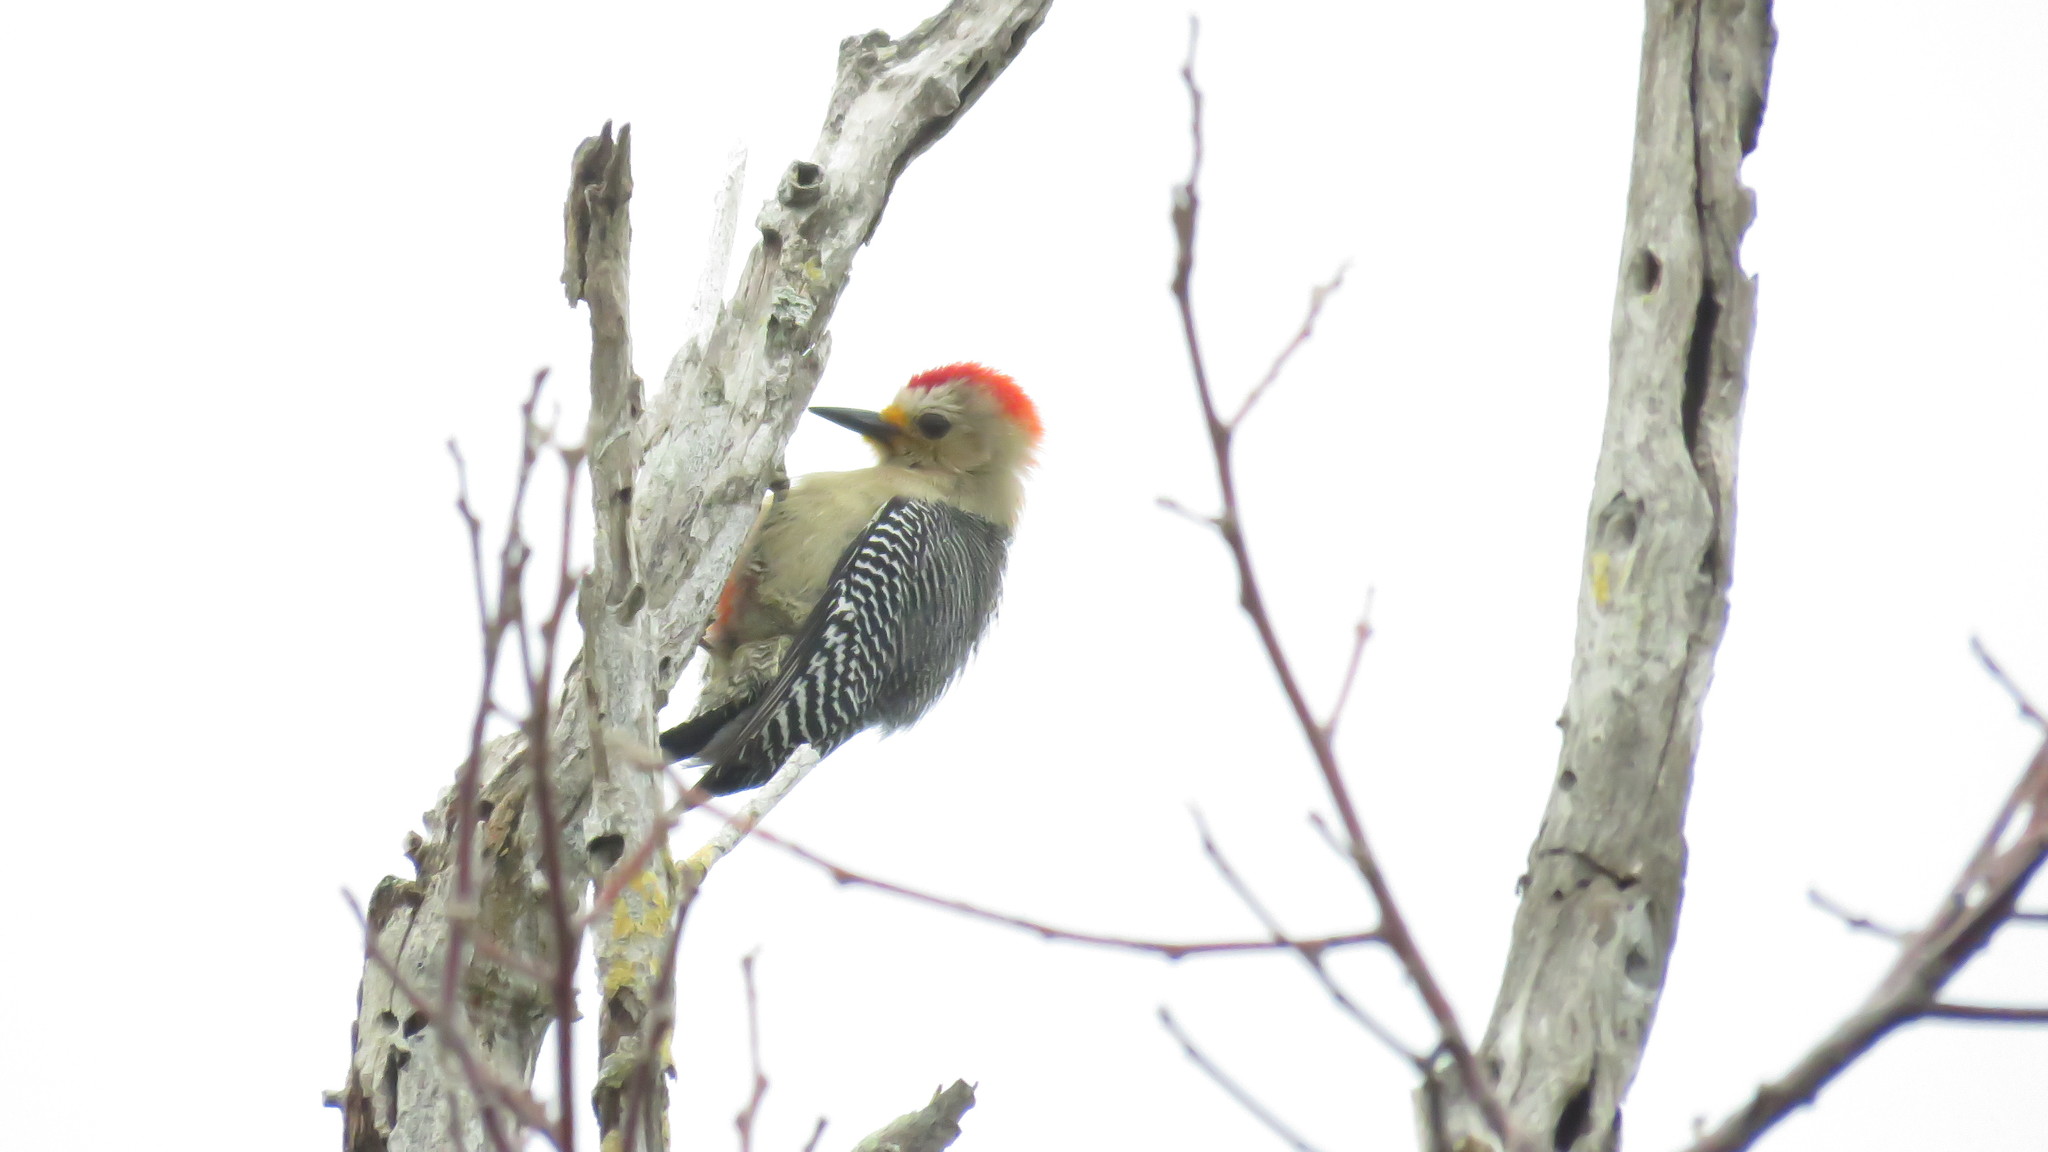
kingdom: Animalia
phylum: Chordata
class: Aves
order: Piciformes
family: Picidae
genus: Melanerpes
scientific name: Melanerpes pygmaeus
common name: Yucatan woodpecker
